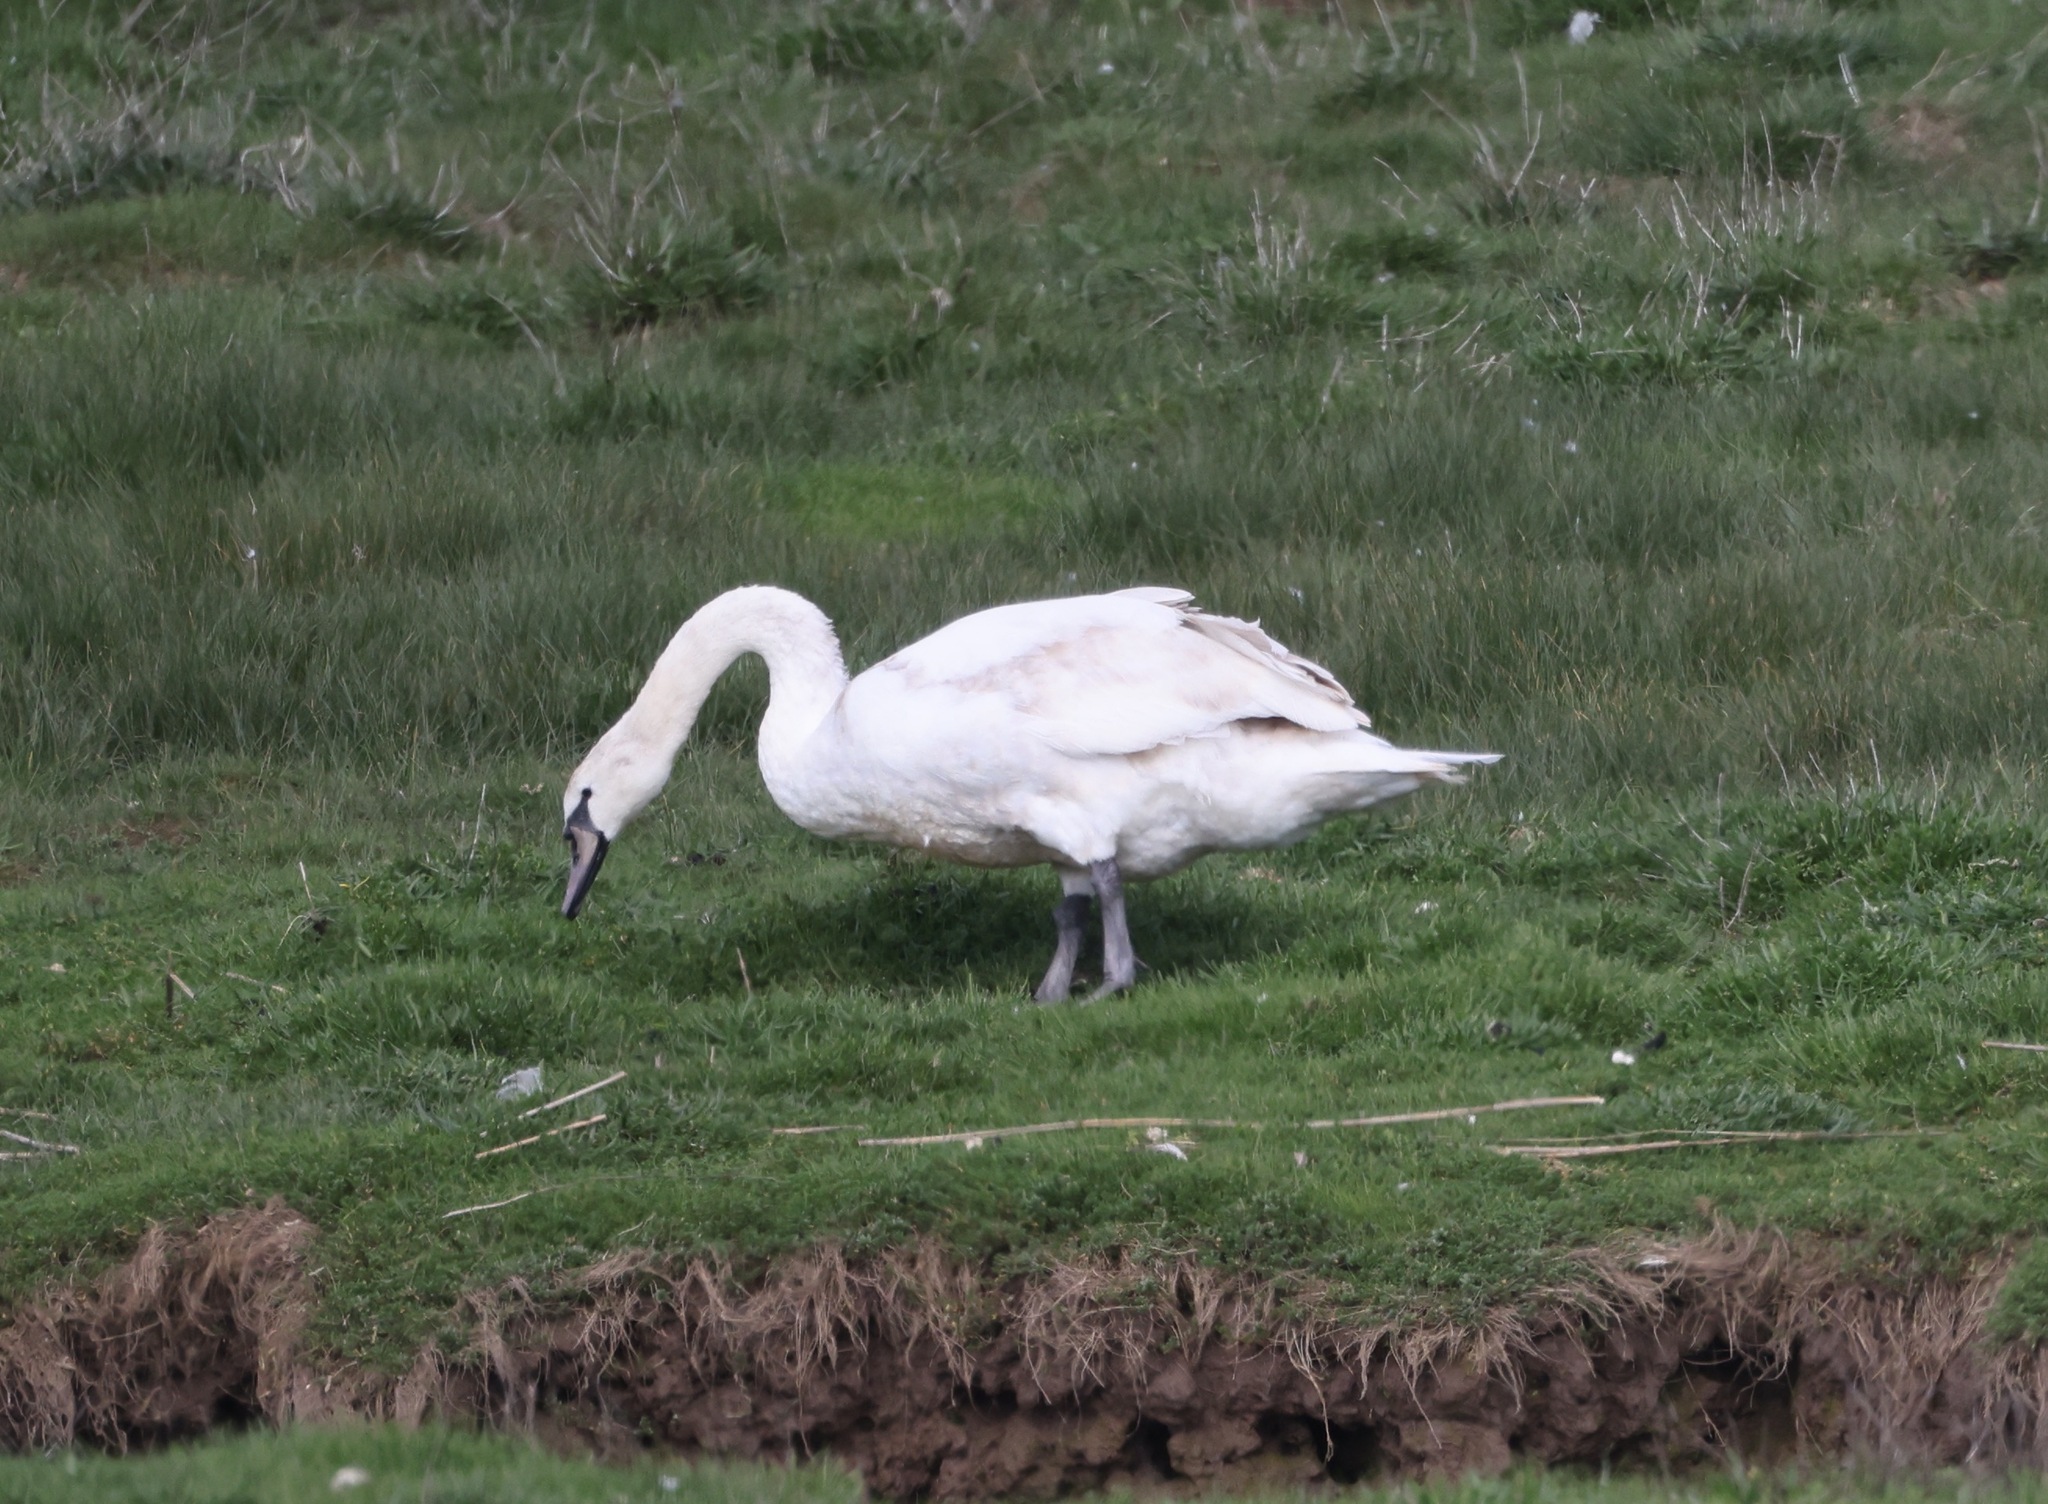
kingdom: Animalia
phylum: Chordata
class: Aves
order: Anseriformes
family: Anatidae
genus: Cygnus
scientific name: Cygnus olor
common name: Mute swan
